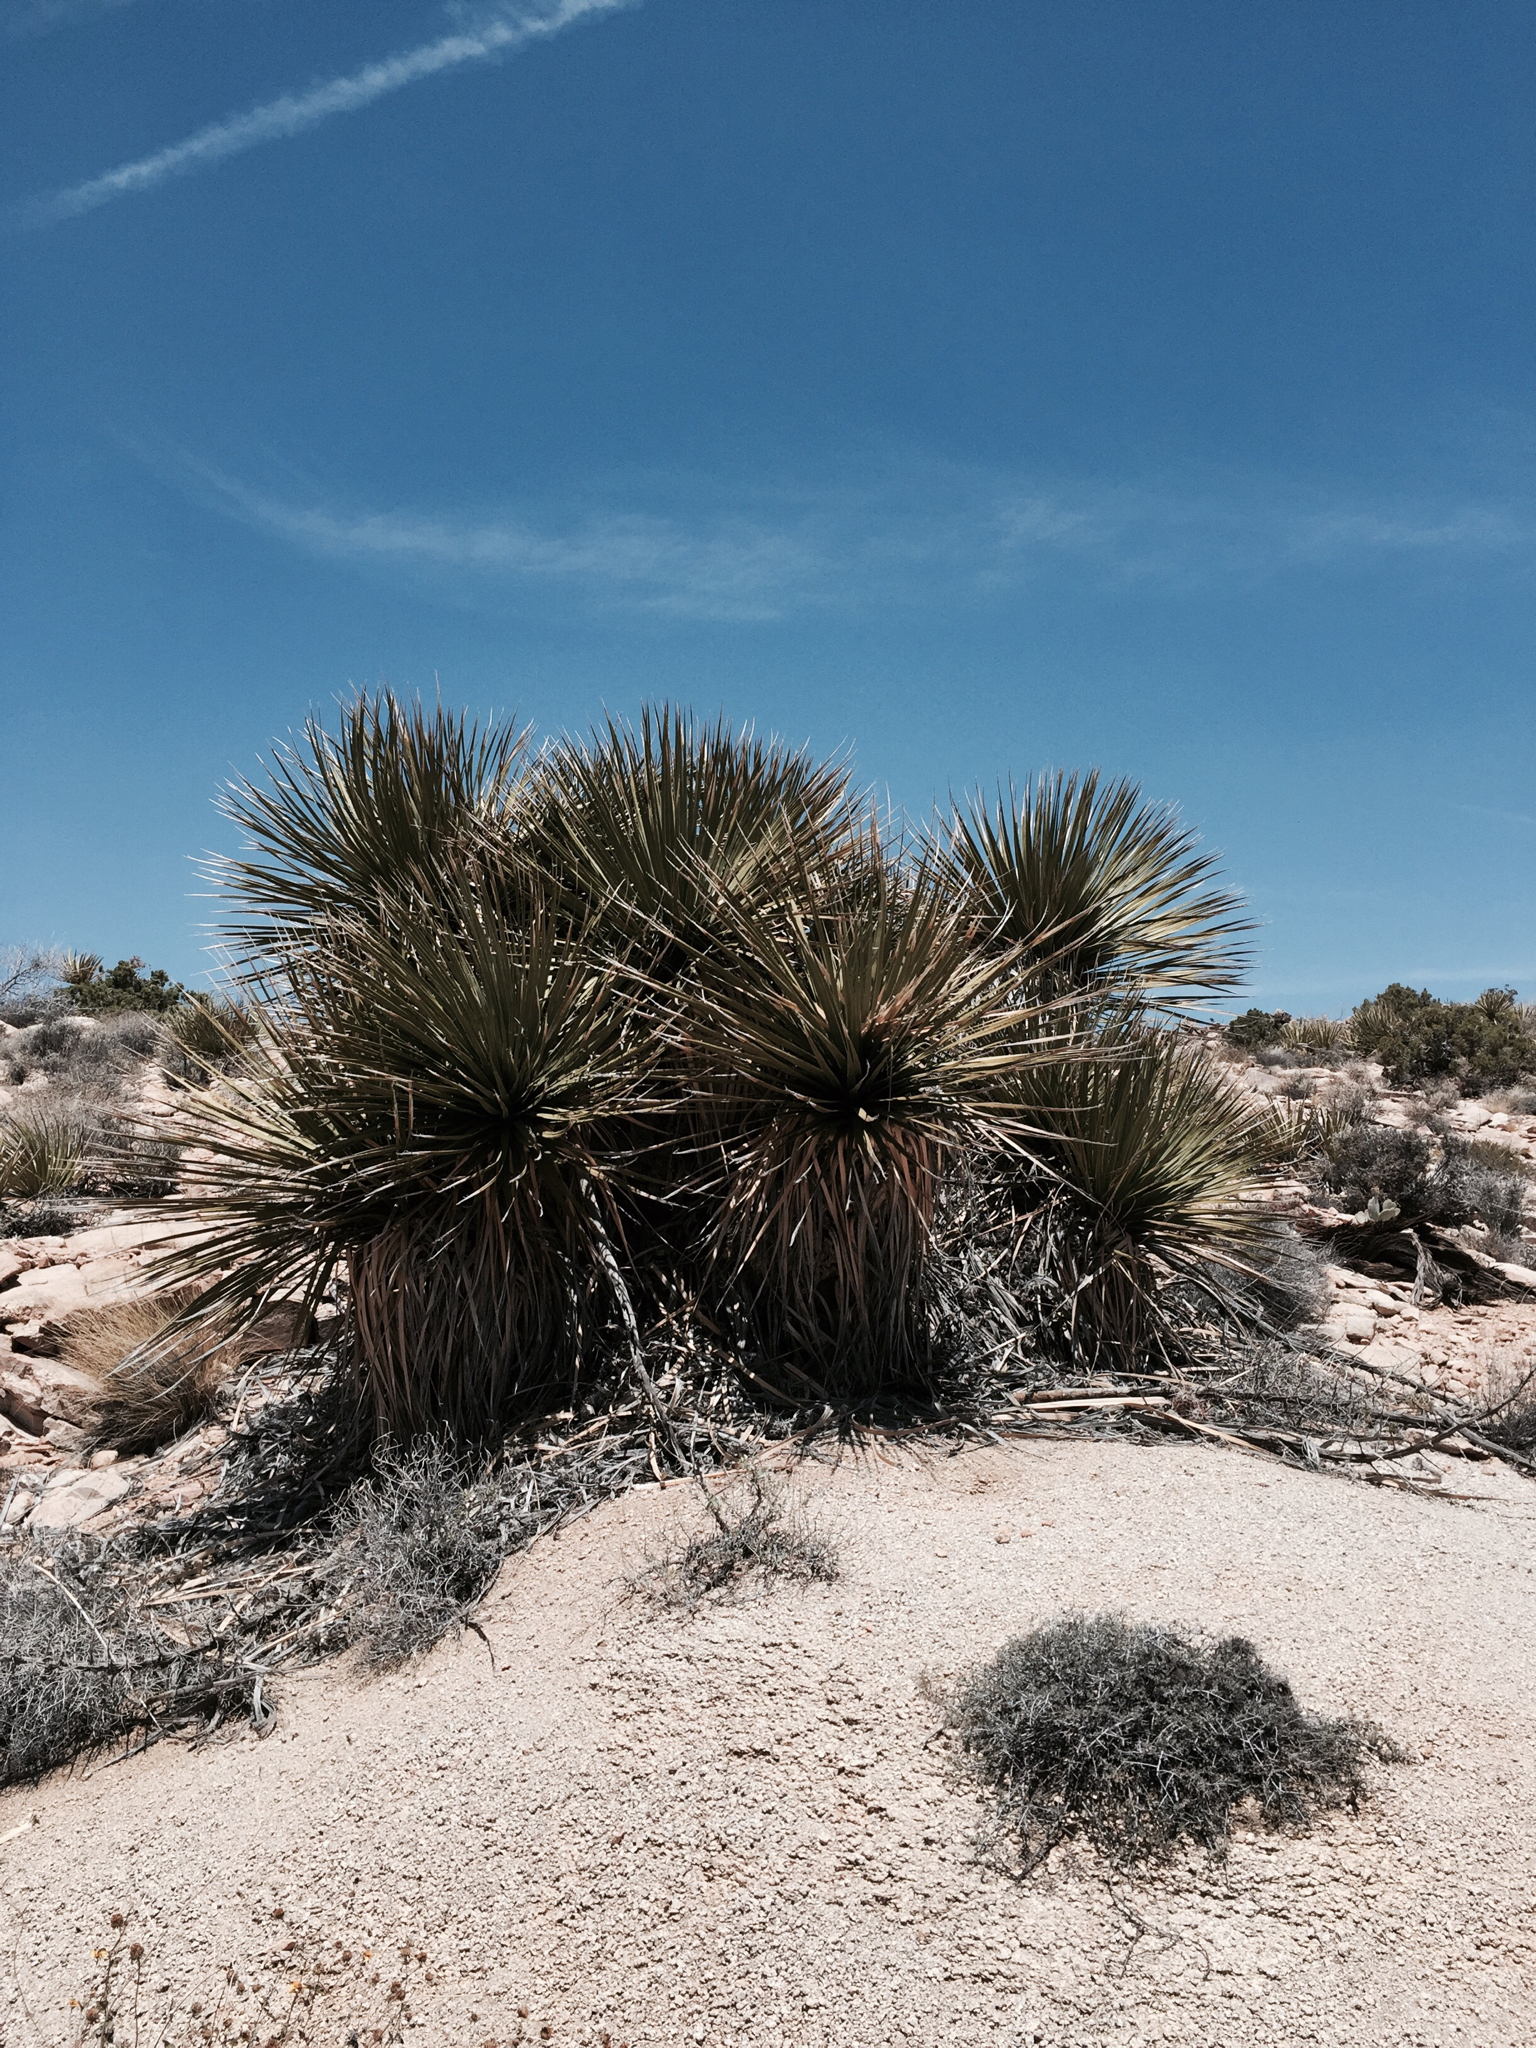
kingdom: Plantae
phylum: Tracheophyta
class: Liliopsida
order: Asparagales
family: Asparagaceae
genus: Nolina
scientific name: Nolina parryi
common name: Parry nolina
